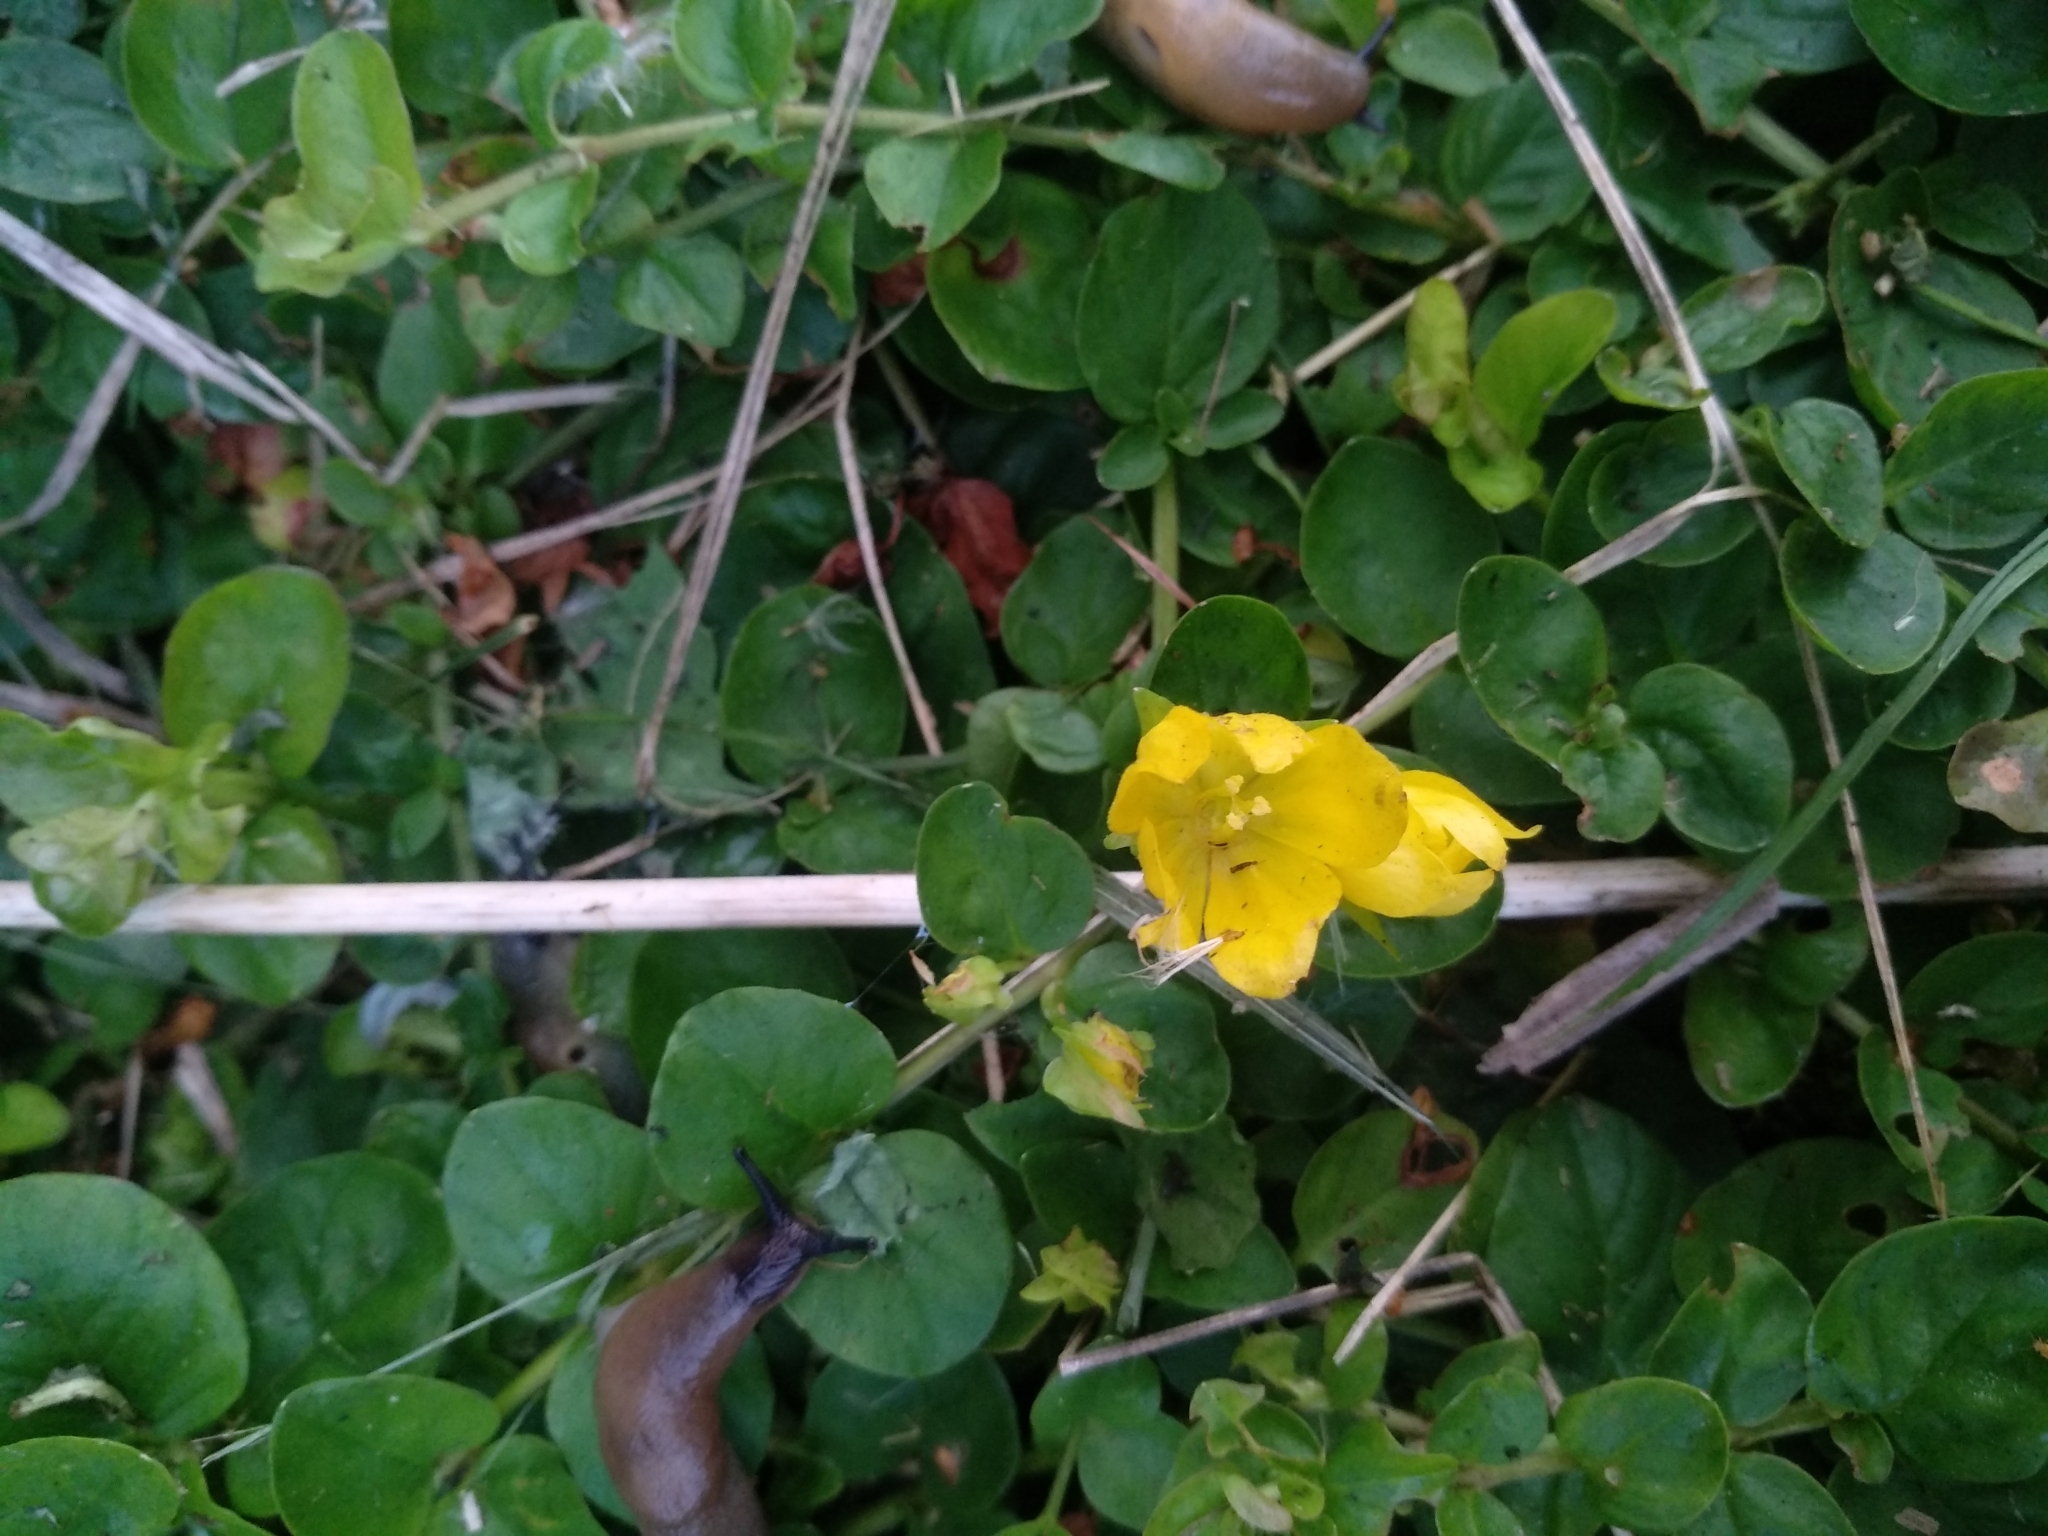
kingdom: Plantae
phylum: Tracheophyta
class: Magnoliopsida
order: Ericales
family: Primulaceae
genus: Lysimachia
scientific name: Lysimachia nummularia
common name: Moneywort
